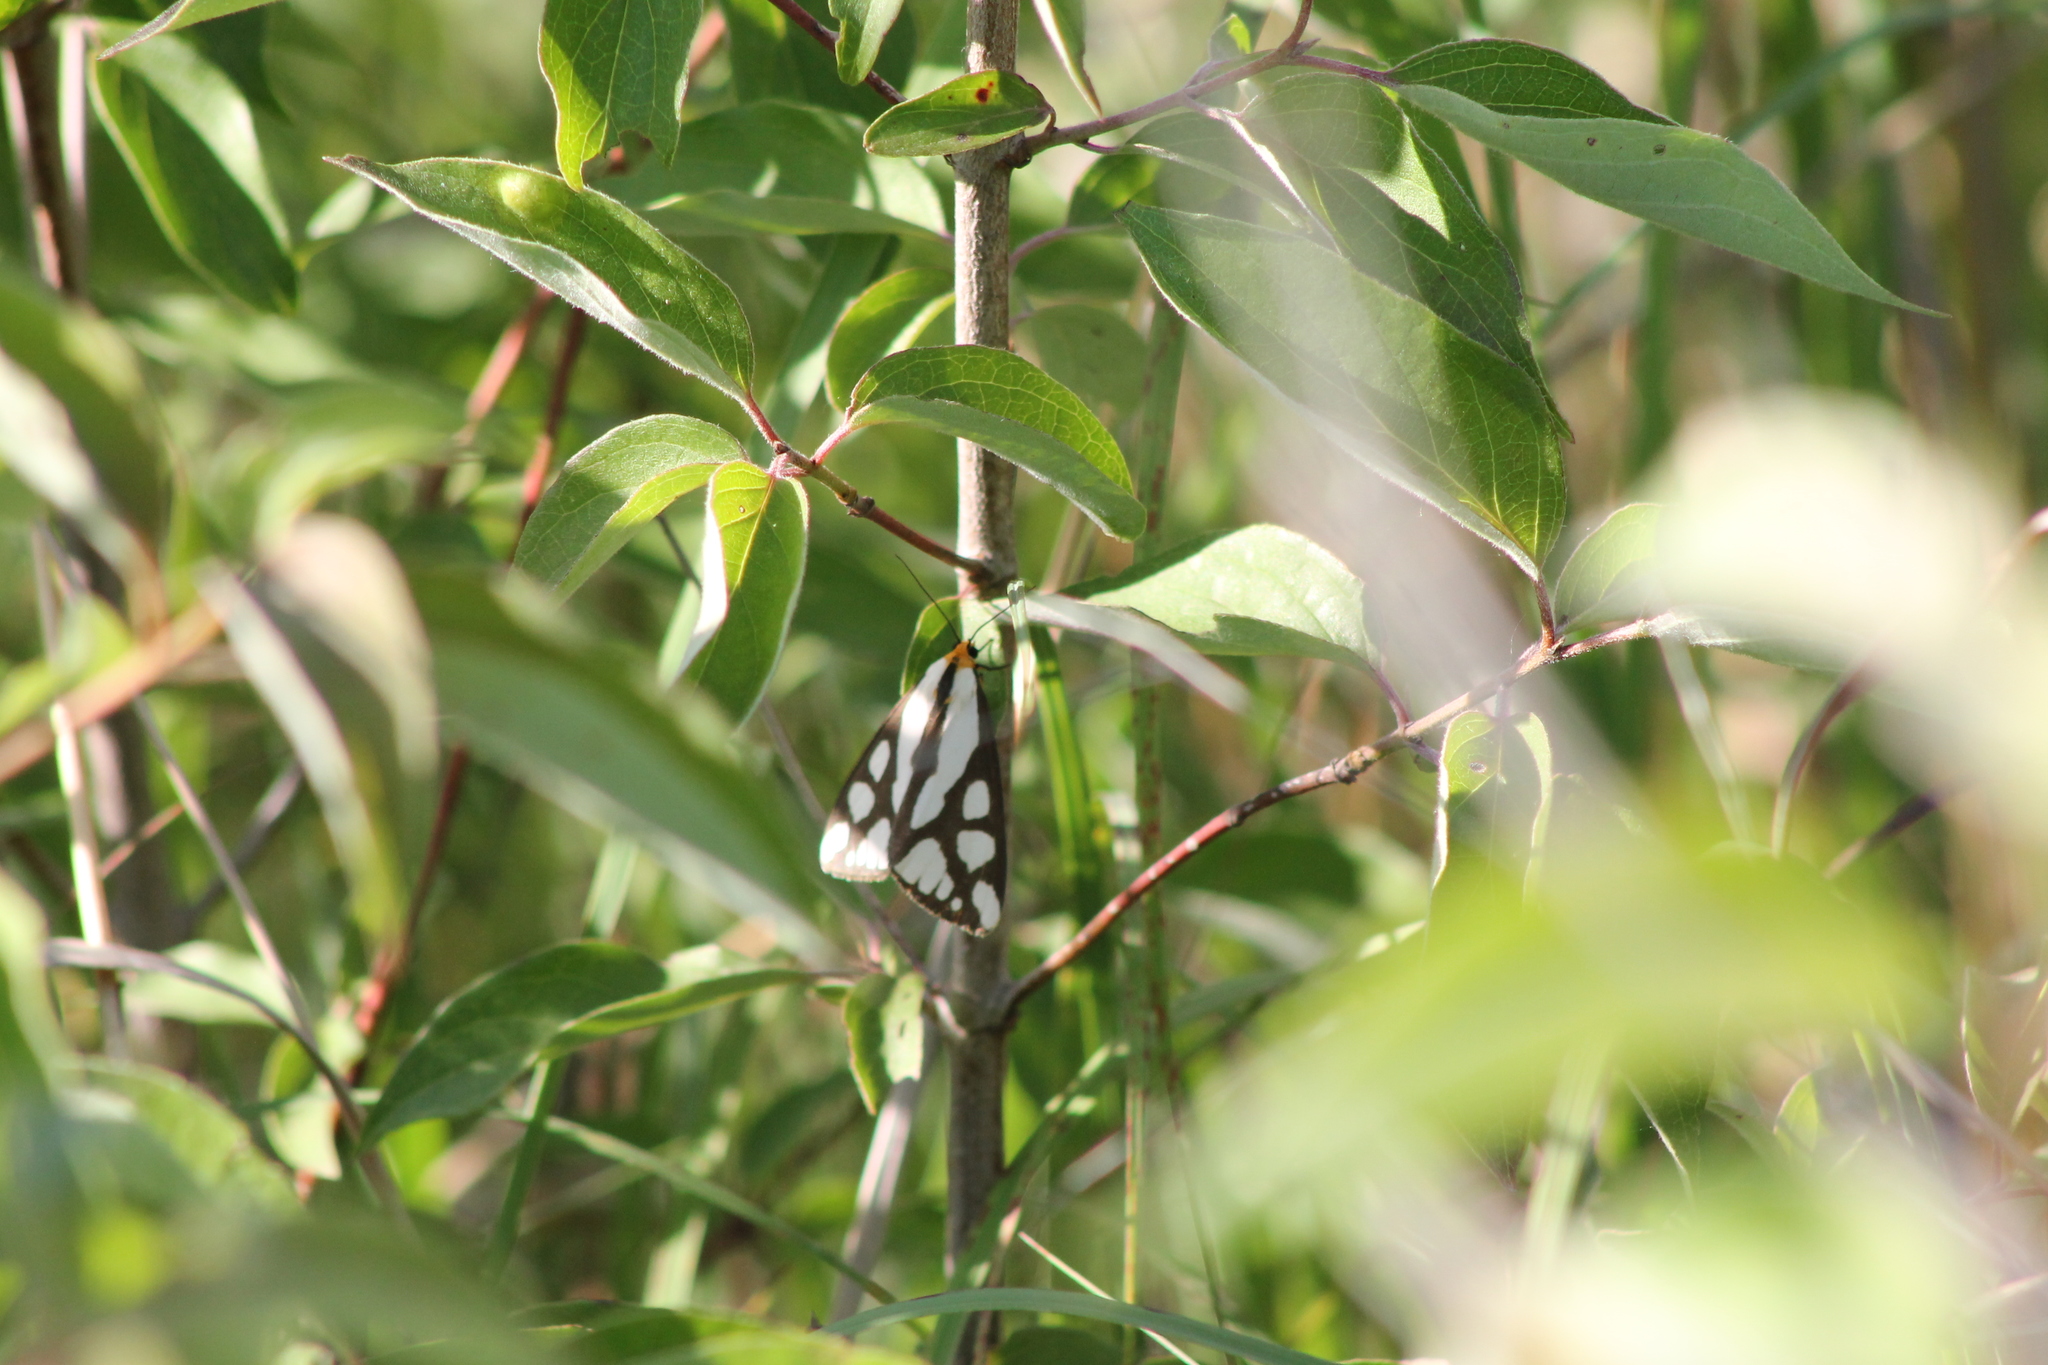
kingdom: Animalia
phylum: Arthropoda
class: Insecta
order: Lepidoptera
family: Erebidae
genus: Haploa
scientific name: Haploa reversa
